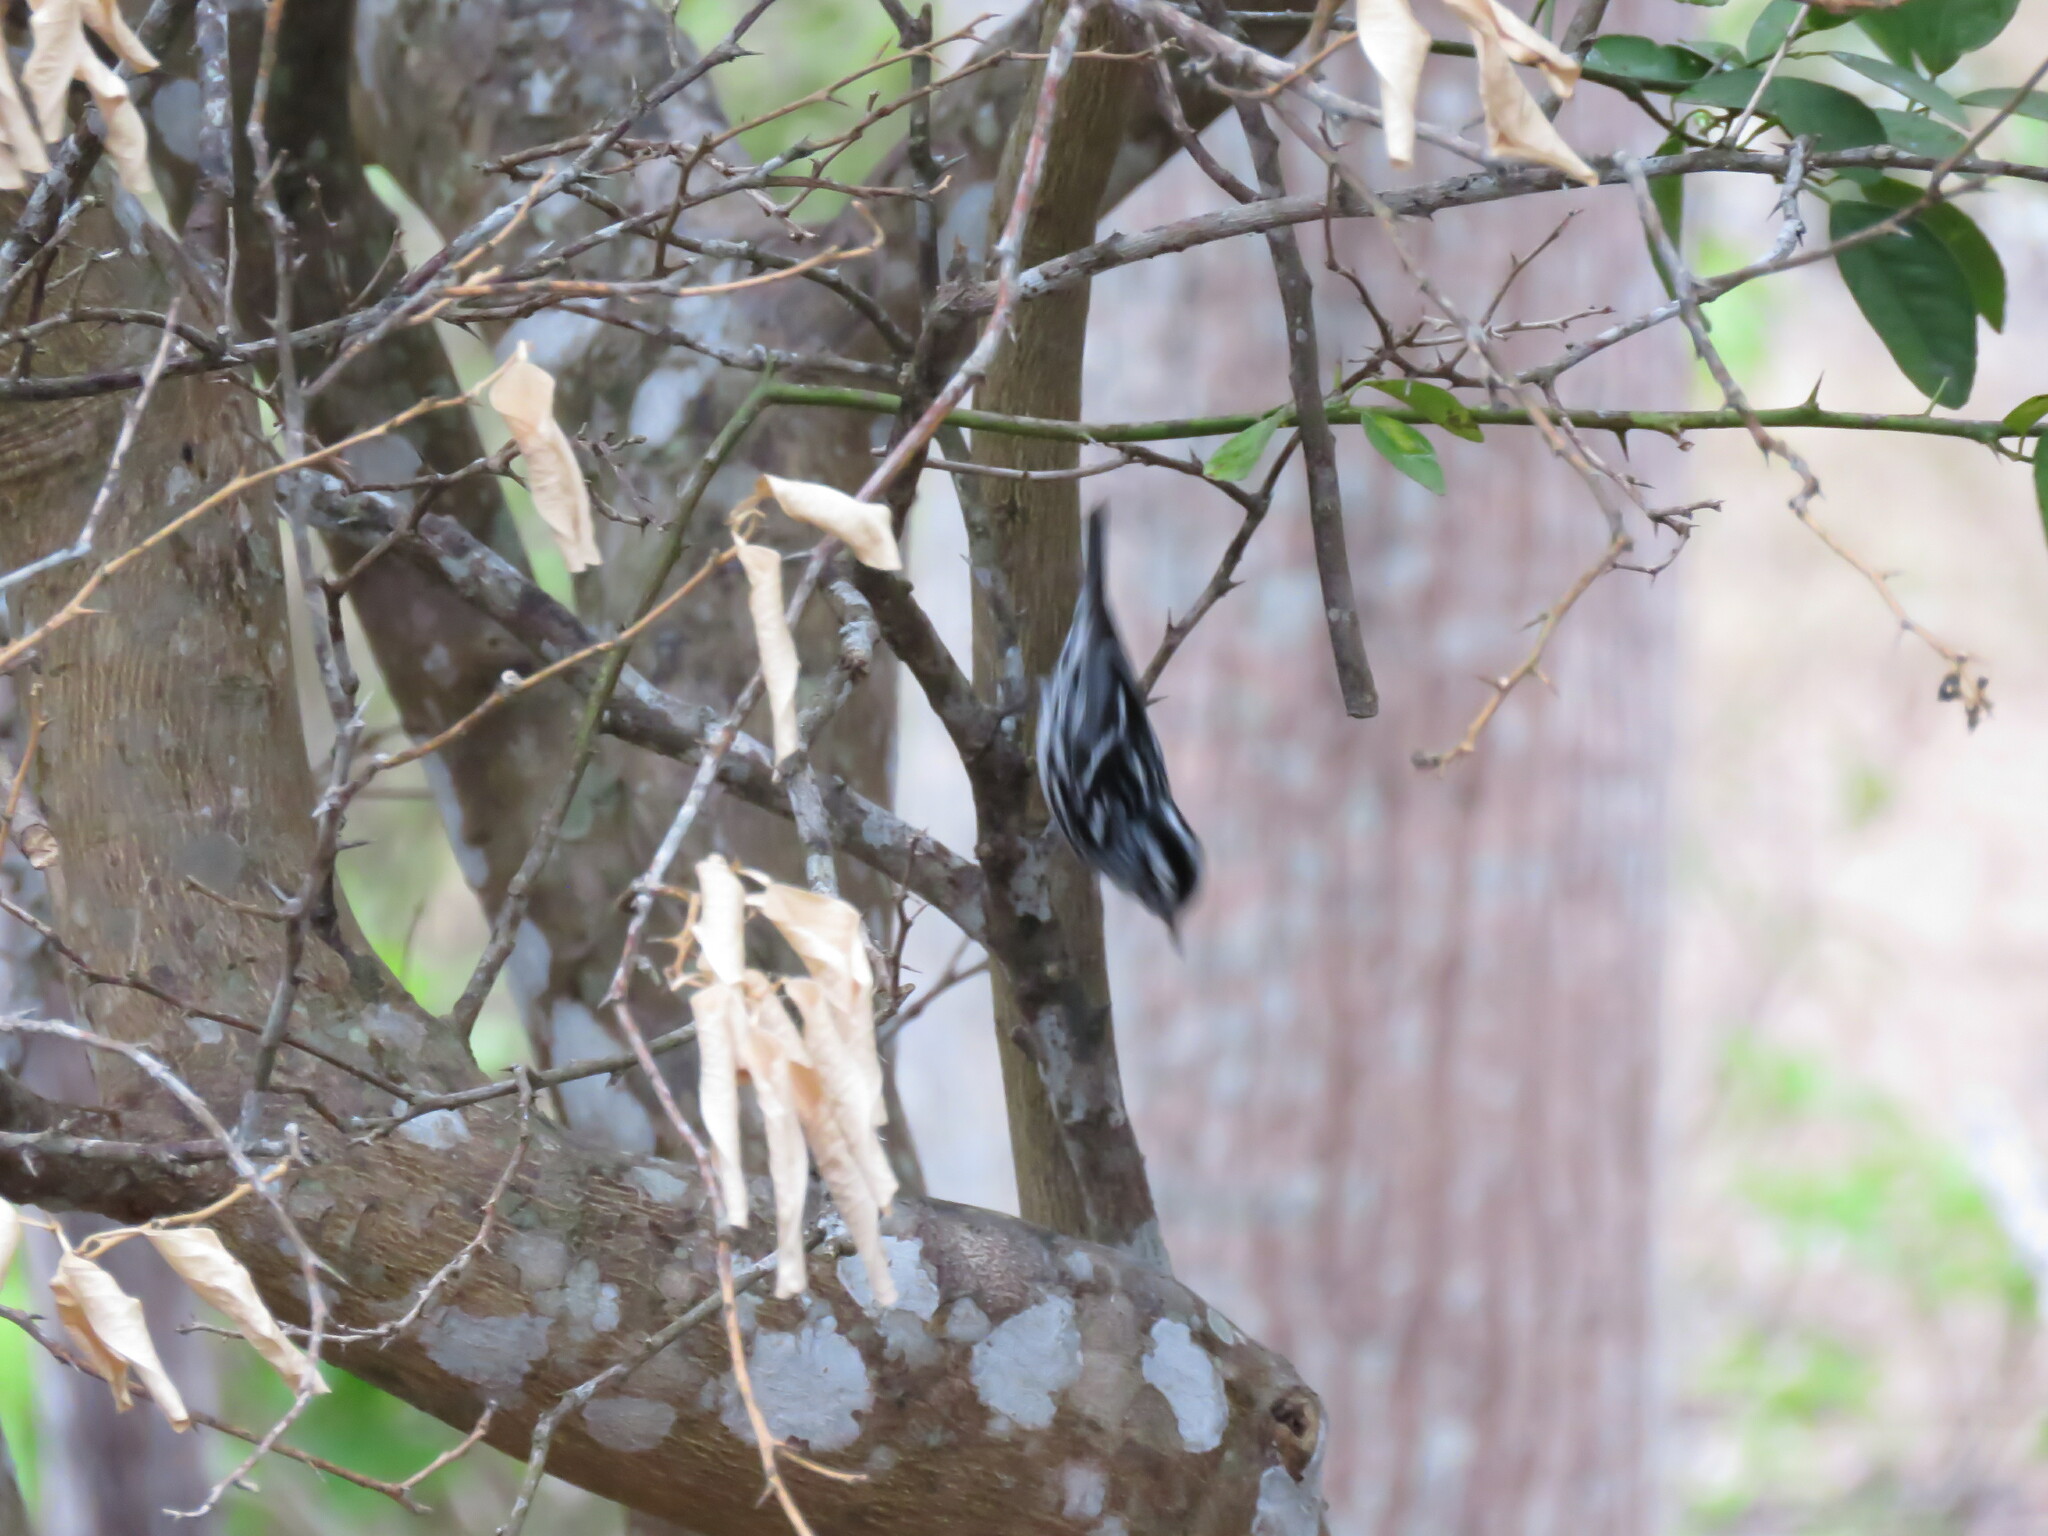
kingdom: Animalia
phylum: Chordata
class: Aves
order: Passeriformes
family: Parulidae
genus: Mniotilta
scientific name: Mniotilta varia
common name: Black-and-white warbler
